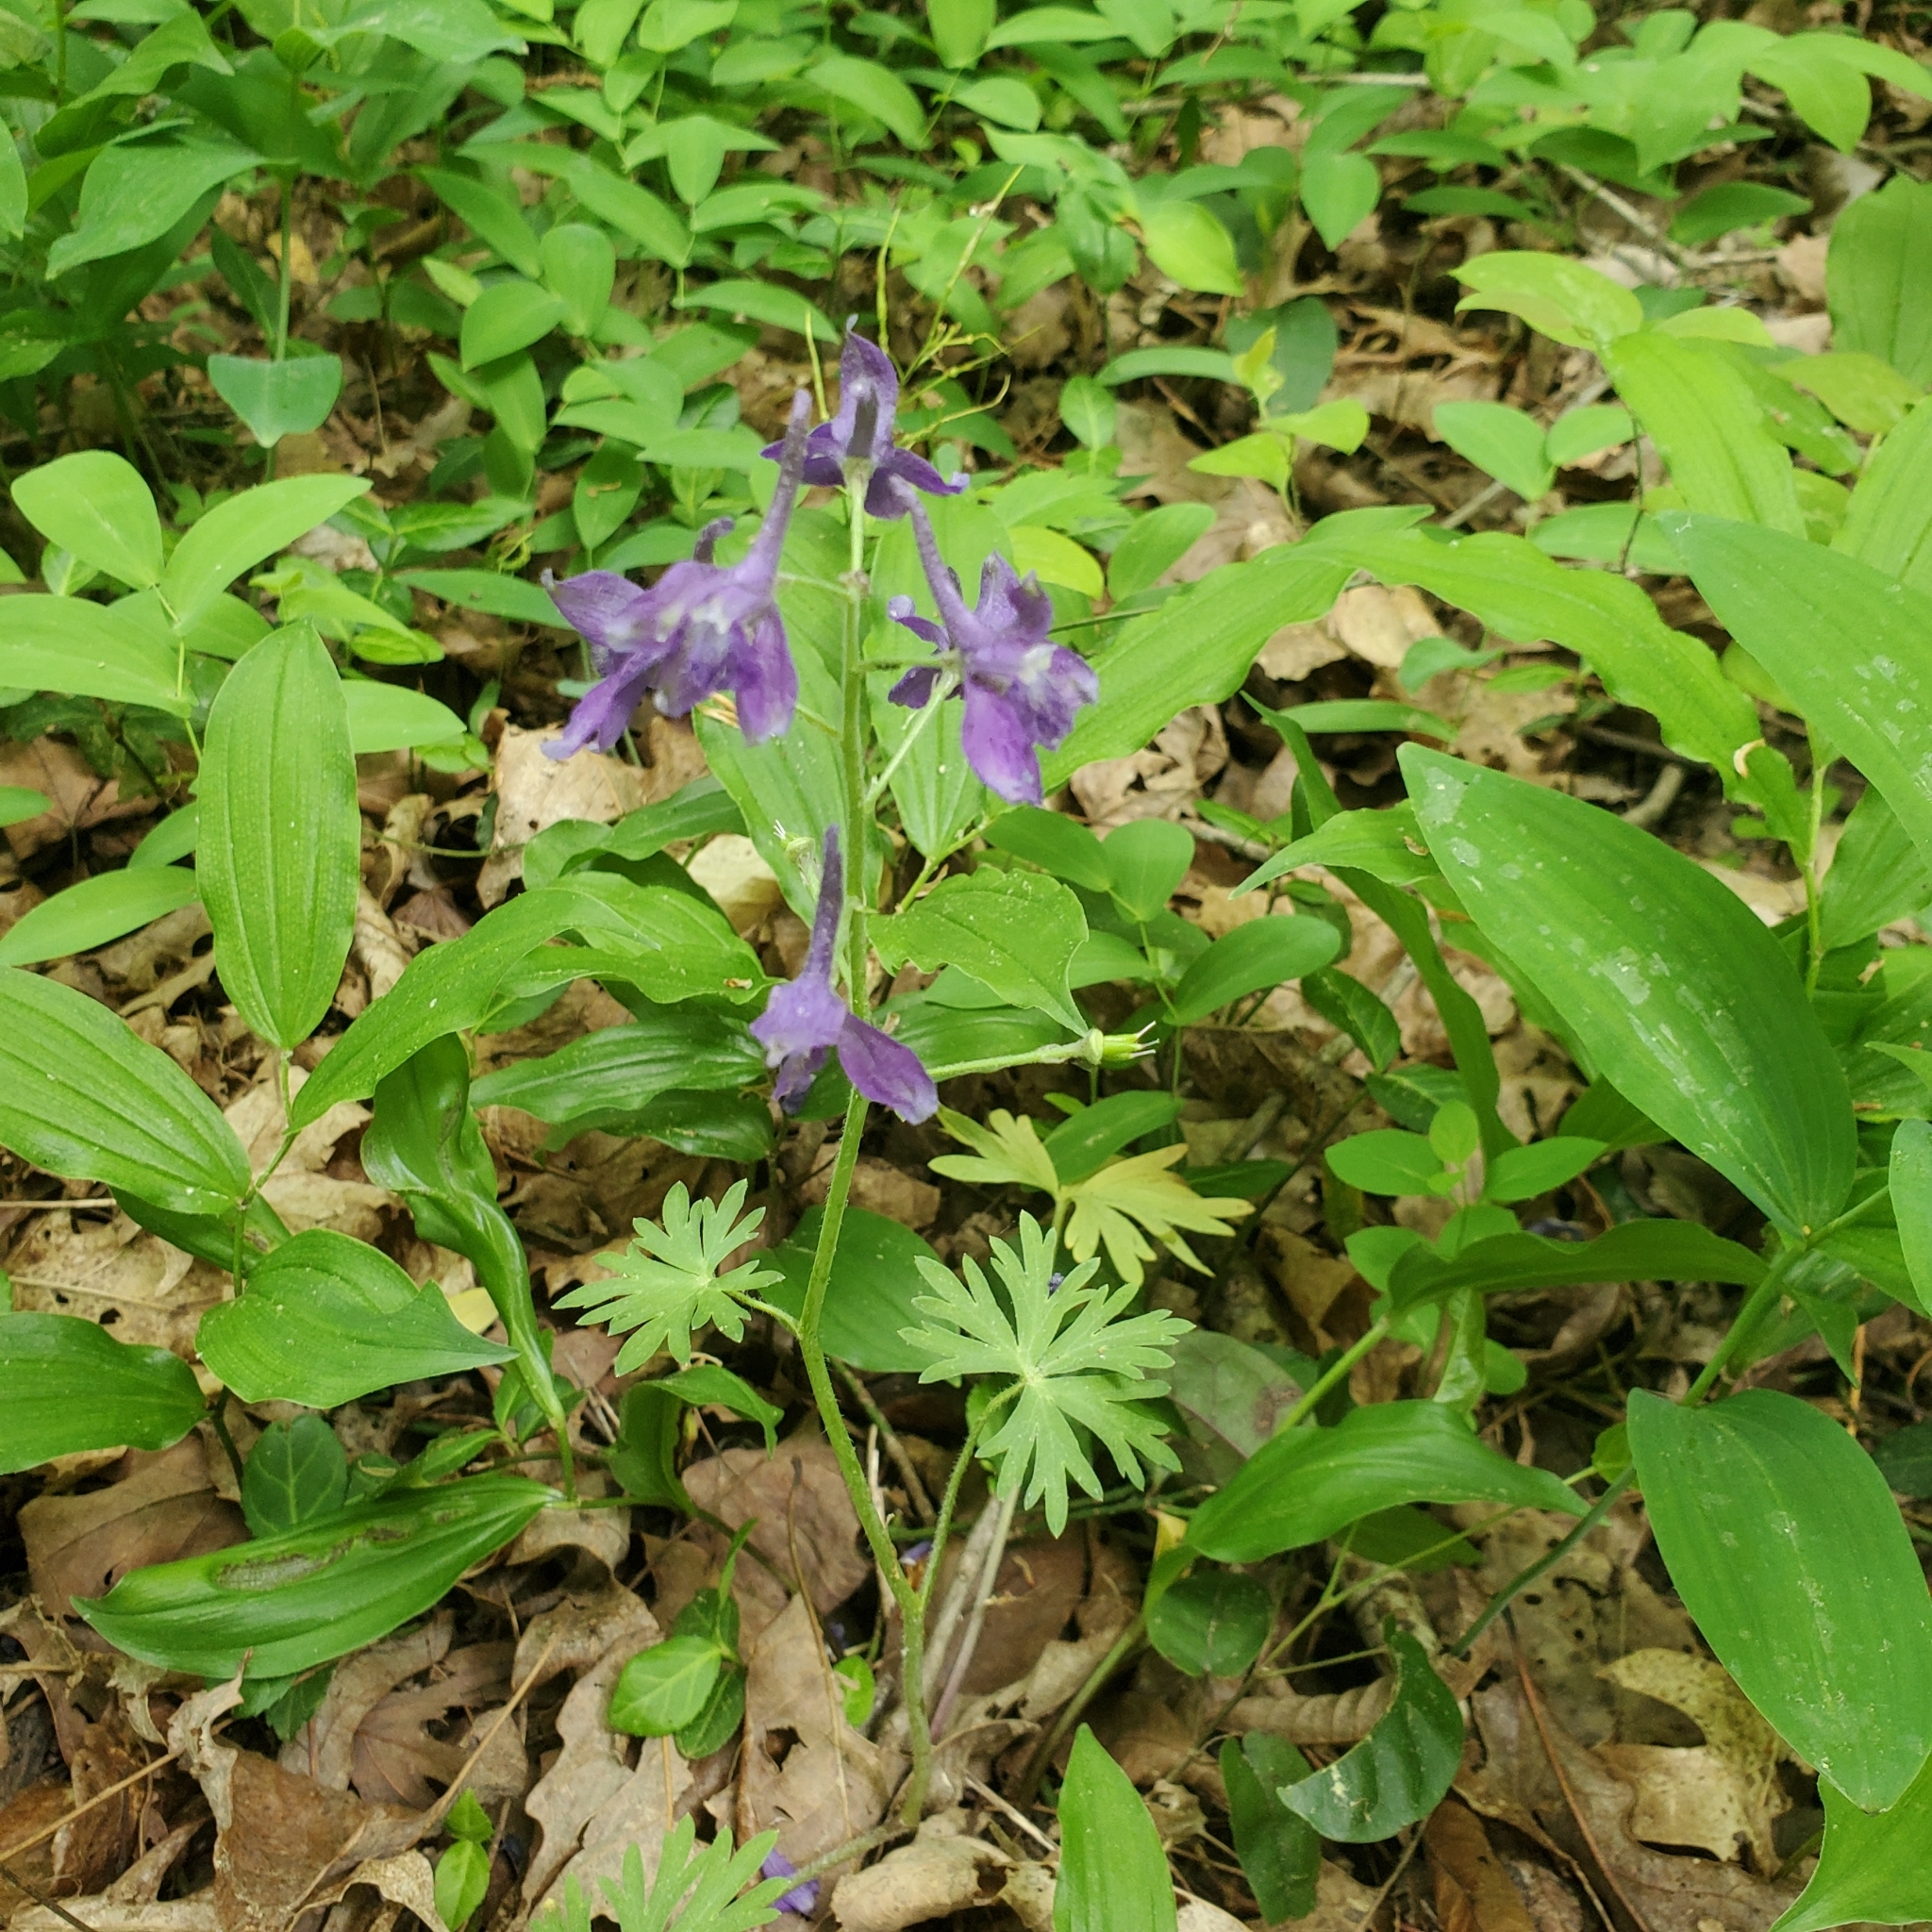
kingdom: Plantae
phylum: Tracheophyta
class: Magnoliopsida
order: Ranunculales
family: Ranunculaceae
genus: Delphinium
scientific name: Delphinium tricorne
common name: Dwarf larkspur
